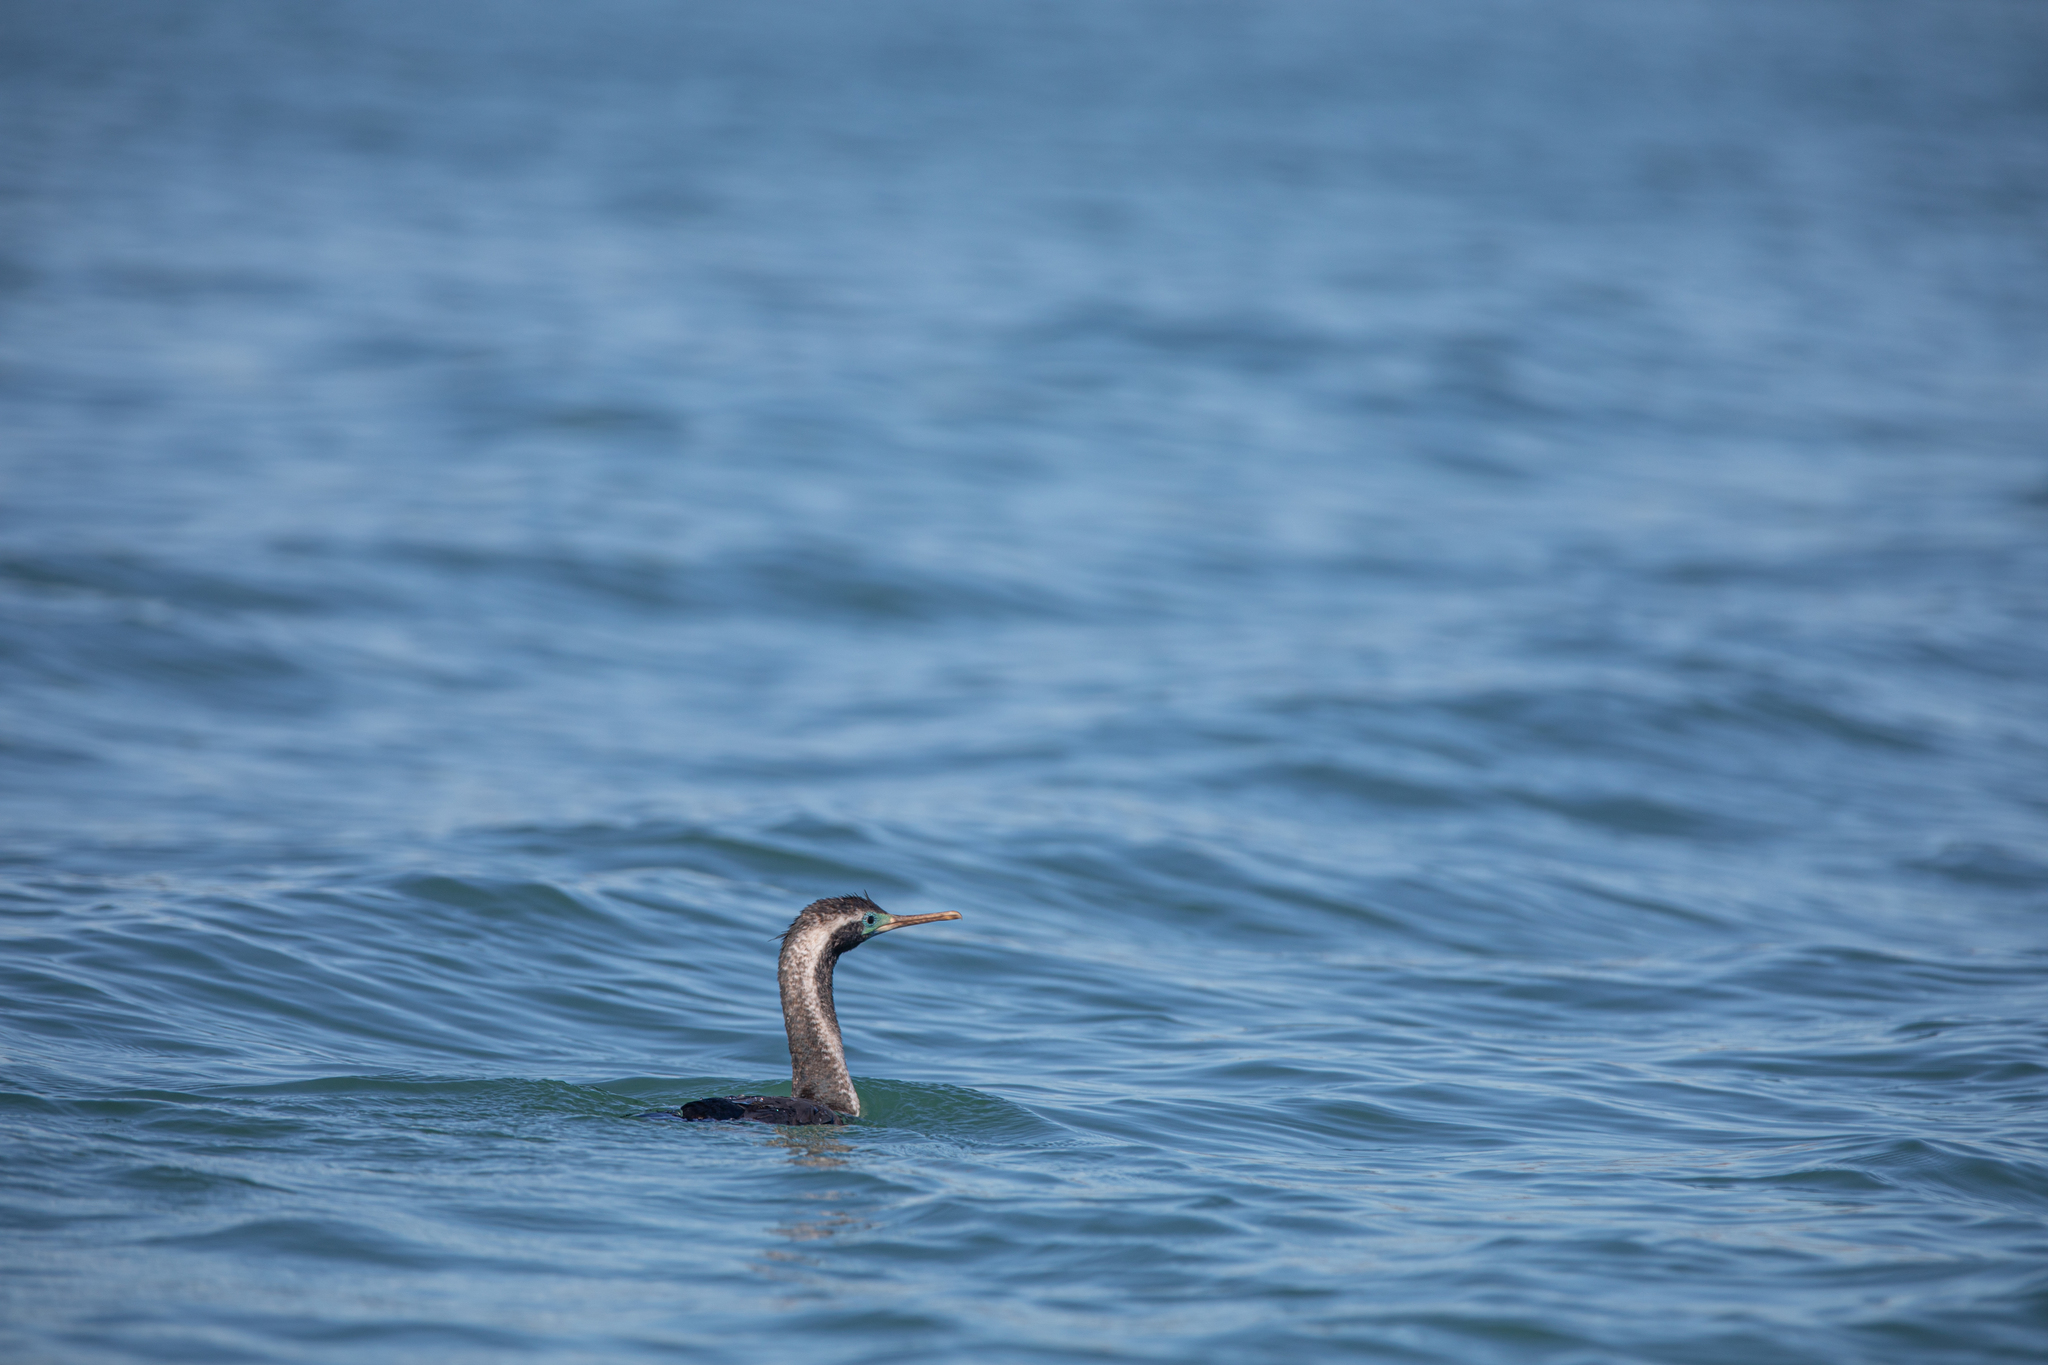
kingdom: Animalia
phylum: Chordata
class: Aves
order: Suliformes
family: Phalacrocoracidae
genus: Phalacrocorax
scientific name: Phalacrocorax punctatus
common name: Spotted shag
